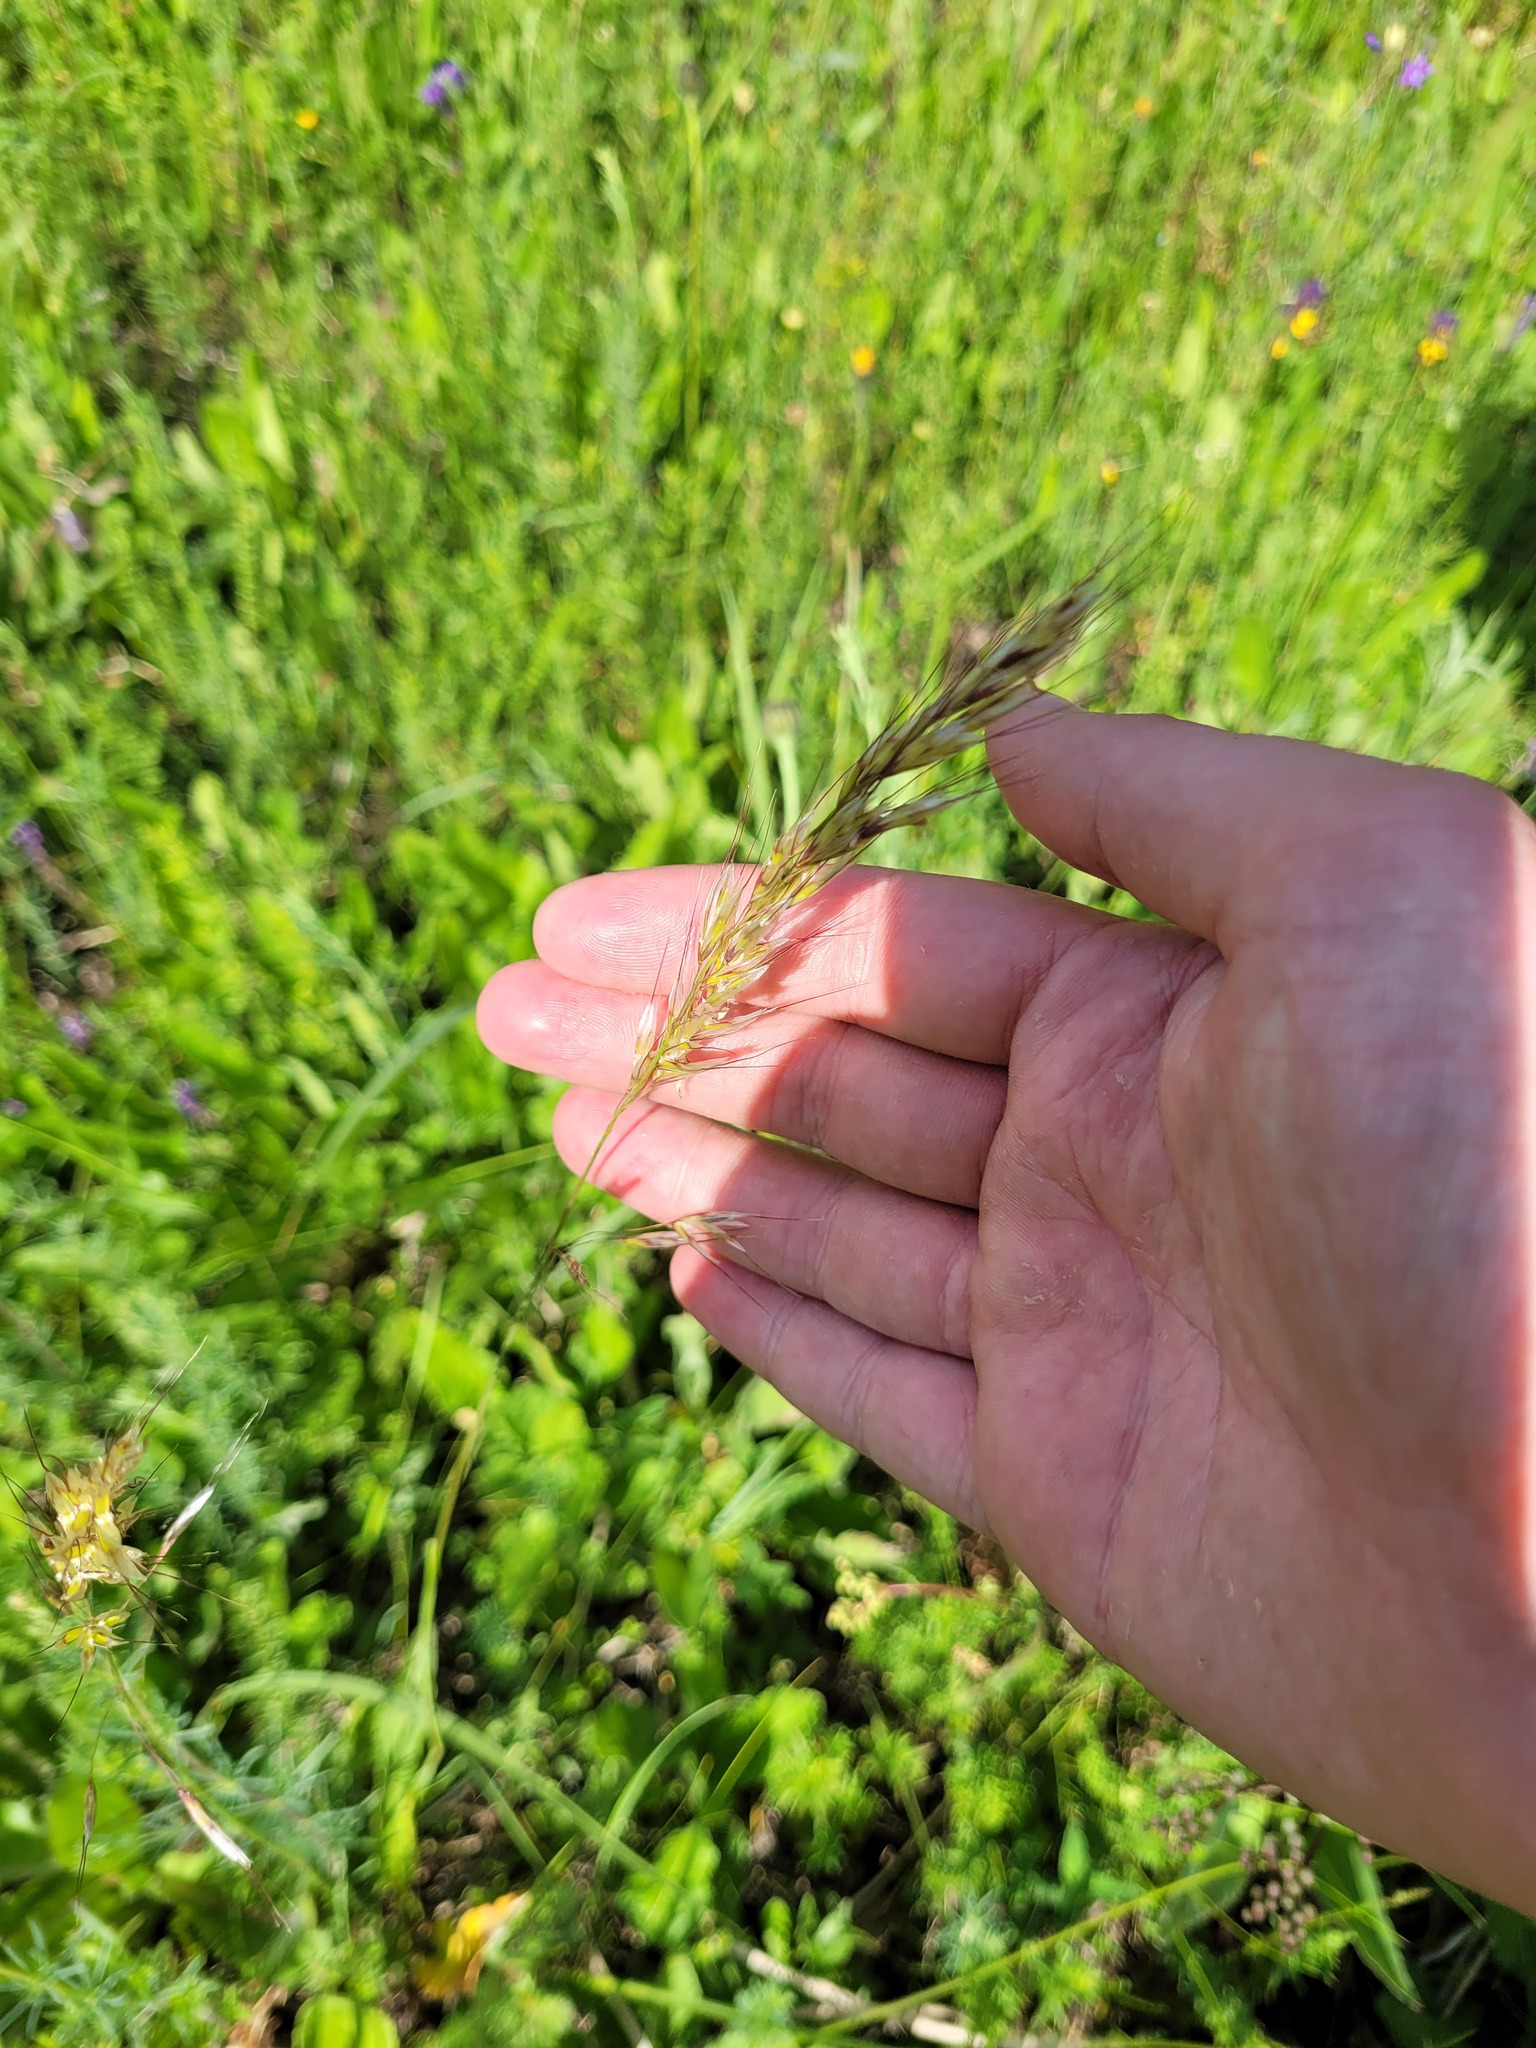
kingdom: Plantae
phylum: Tracheophyta
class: Liliopsida
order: Poales
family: Poaceae
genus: Avenula
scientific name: Avenula pubescens
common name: Downy alpine oatgrass
